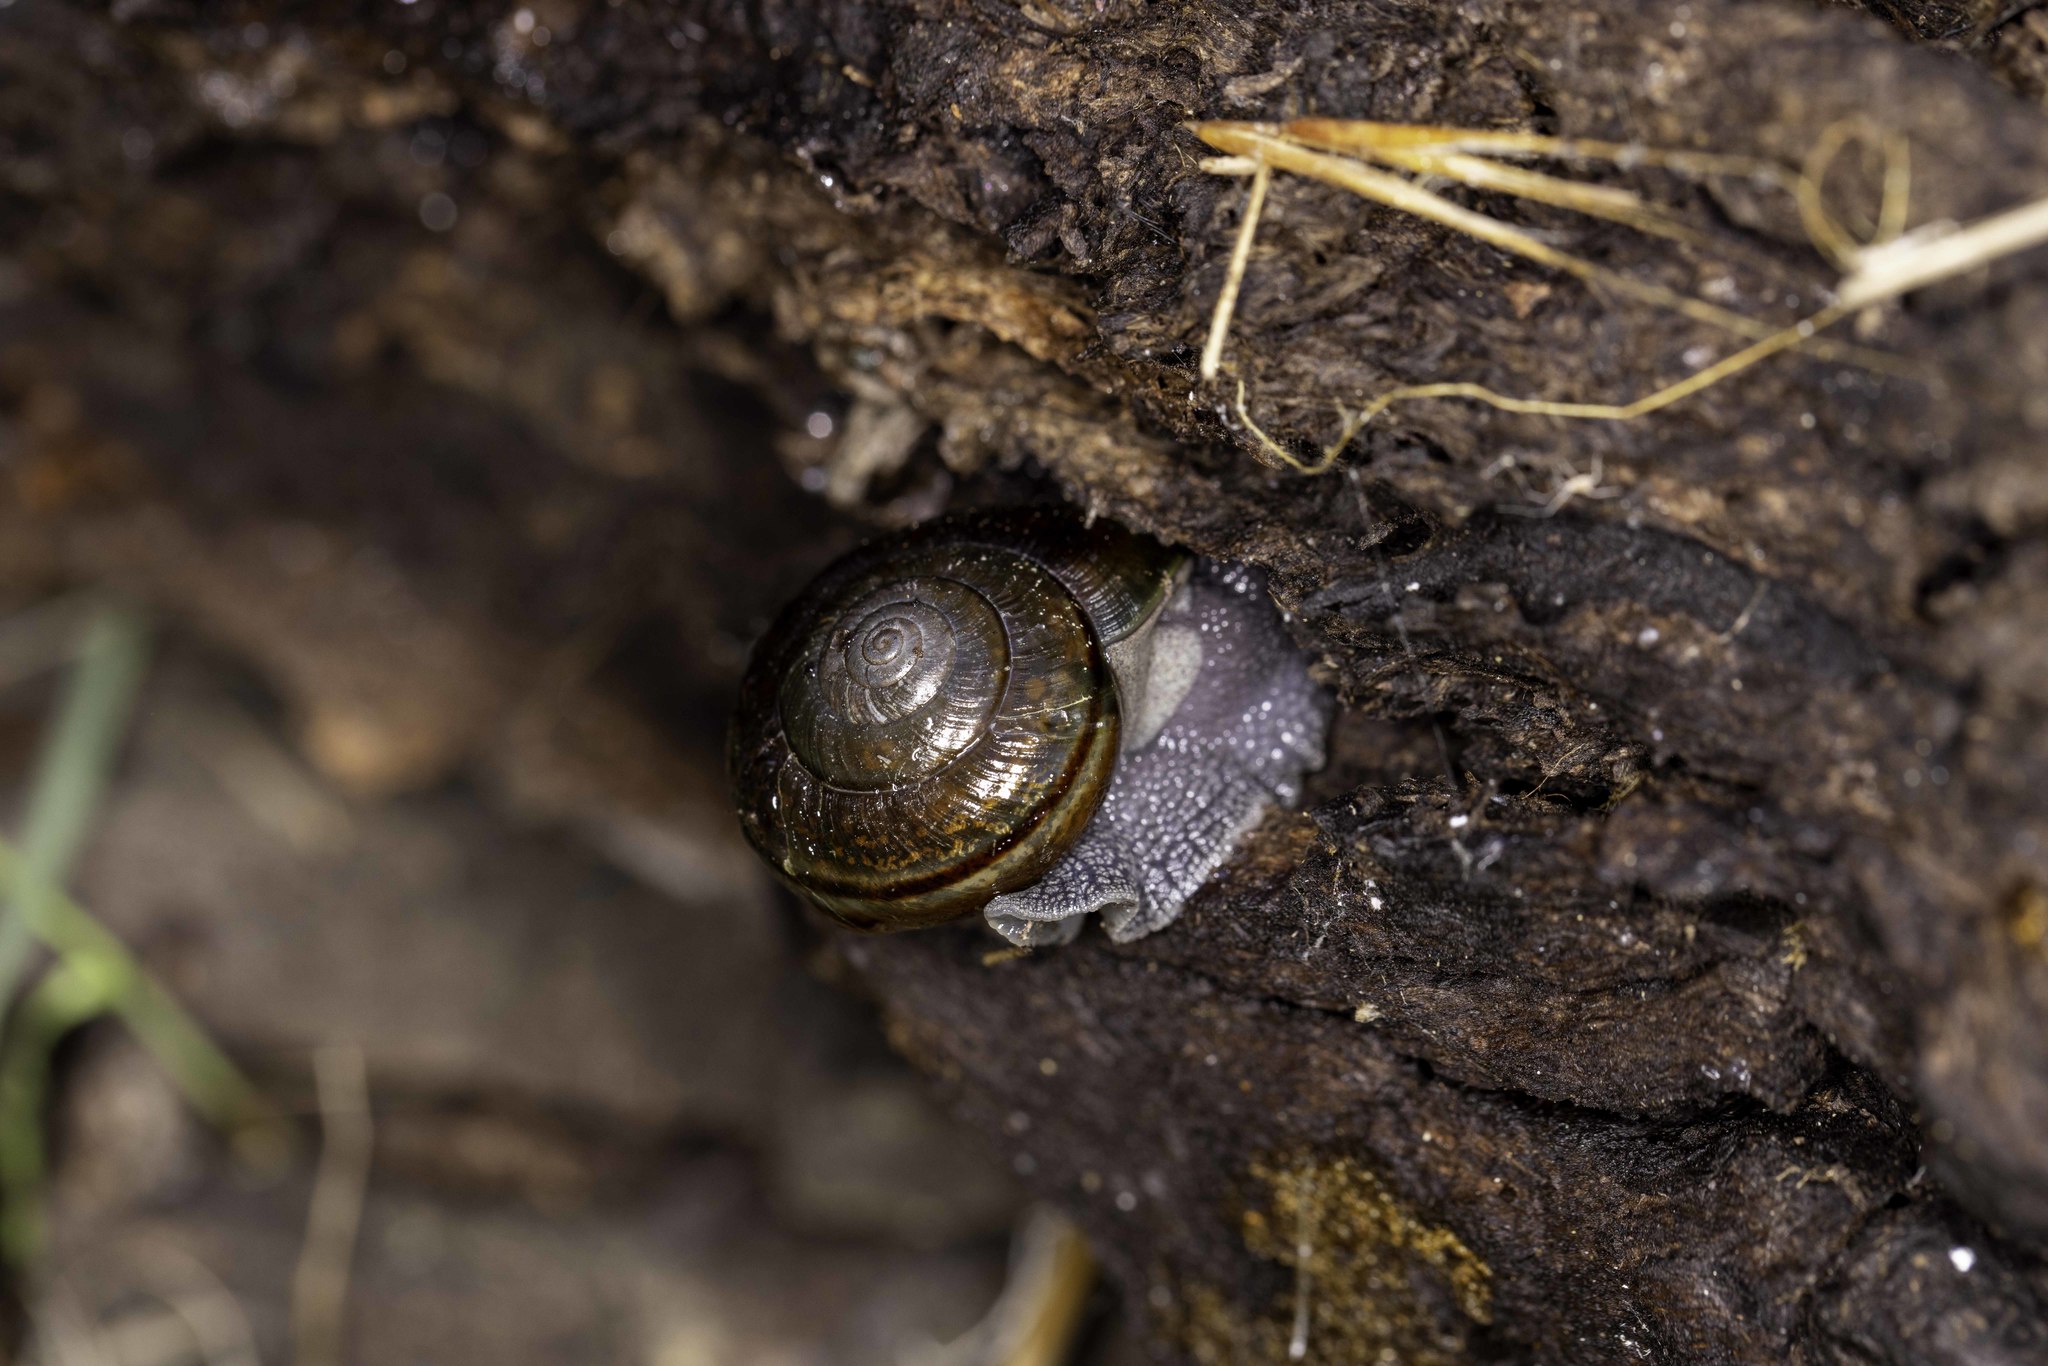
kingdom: Animalia
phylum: Mollusca
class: Gastropoda
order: Stylommatophora
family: Xanthonychidae
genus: Helminthoglypta
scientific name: Helminthoglypta traskii
